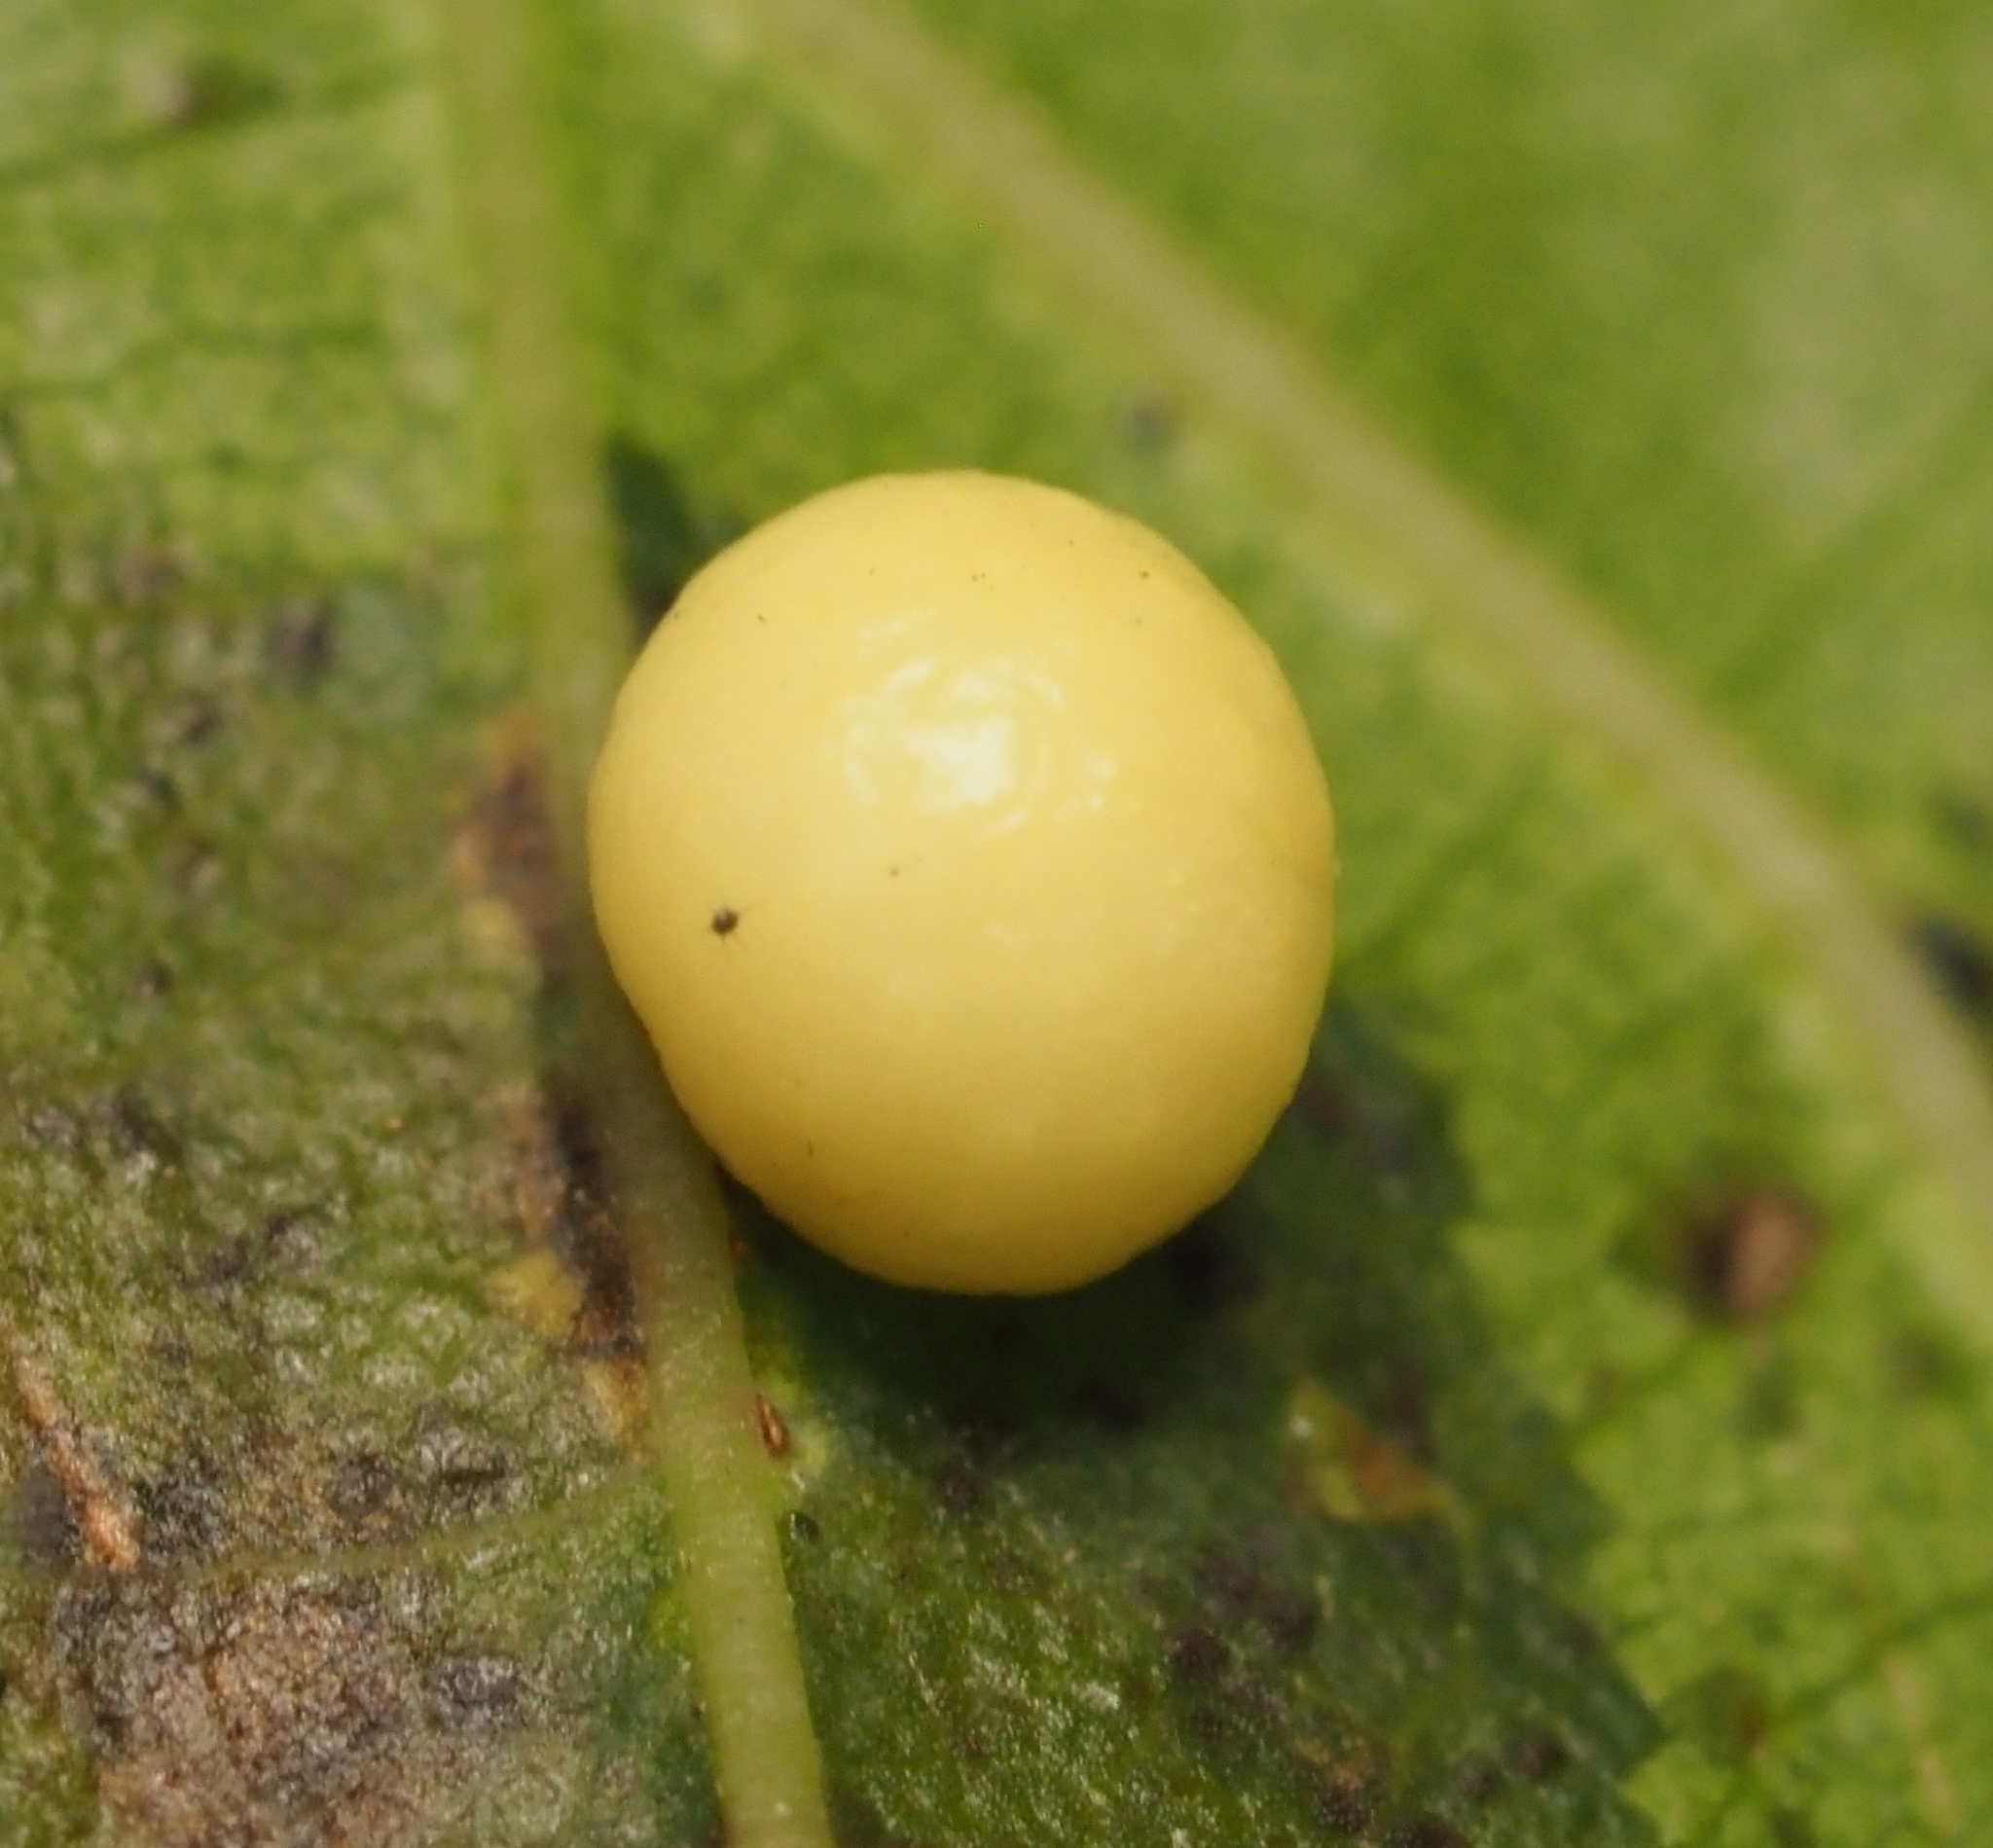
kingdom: Animalia
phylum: Arthropoda
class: Insecta
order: Hymenoptera
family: Cynipidae
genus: Zopheroteras
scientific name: Zopheroteras
